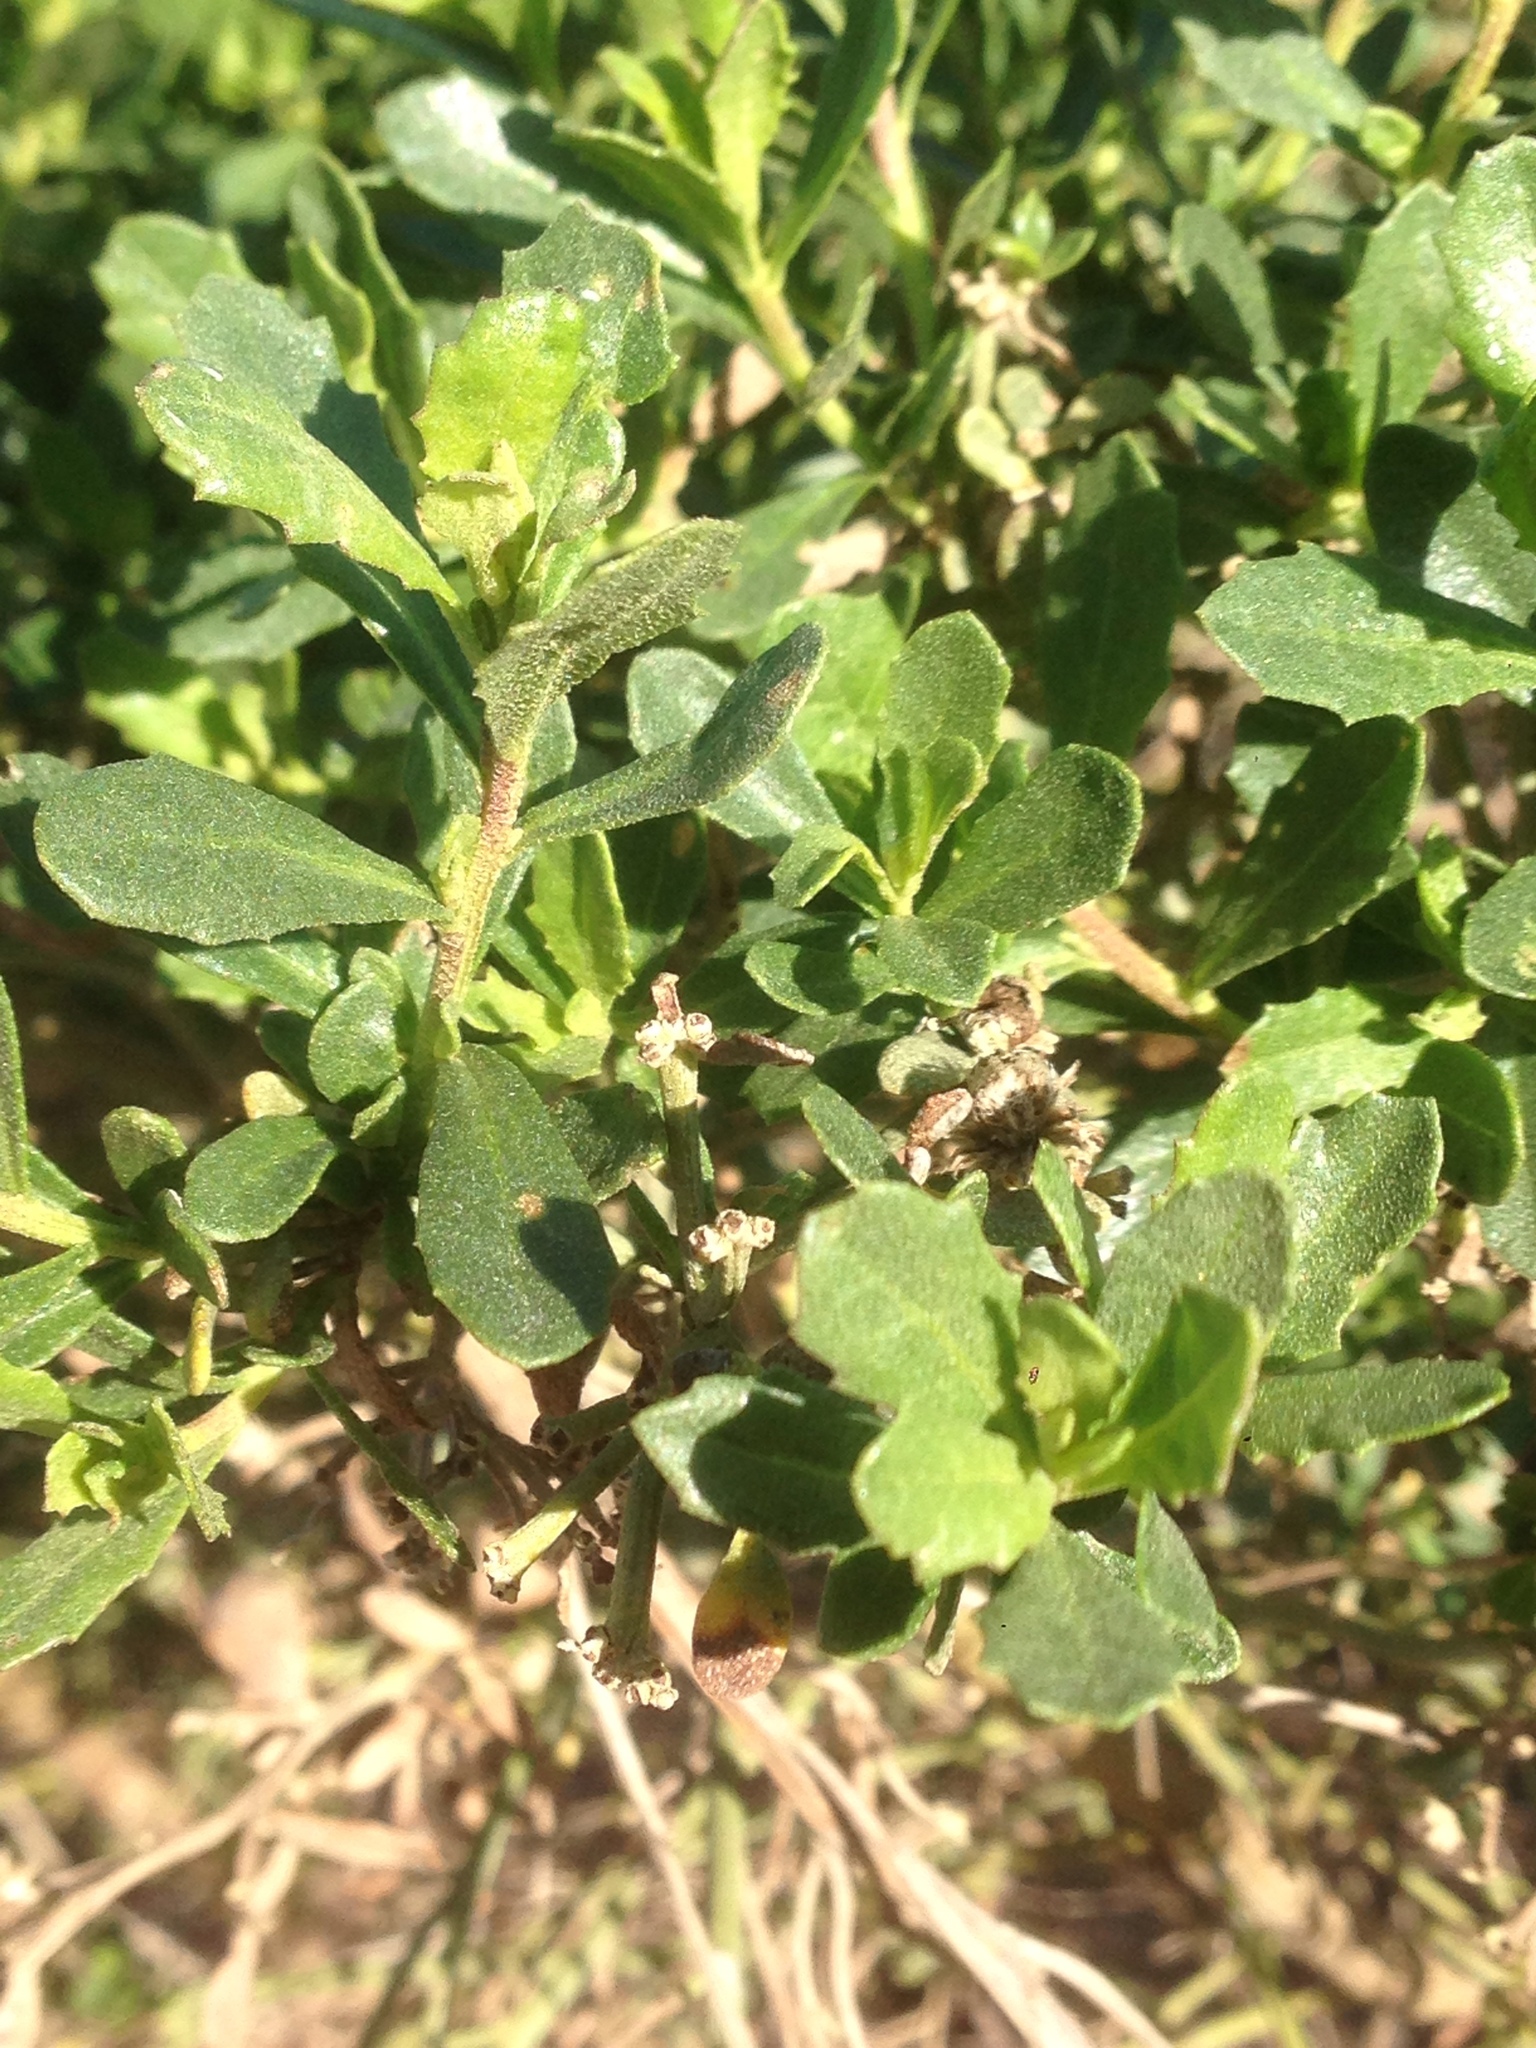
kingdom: Plantae
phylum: Tracheophyta
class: Magnoliopsida
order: Asterales
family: Asteraceae
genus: Baccharis
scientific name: Baccharis pilularis
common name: Coyotebrush
